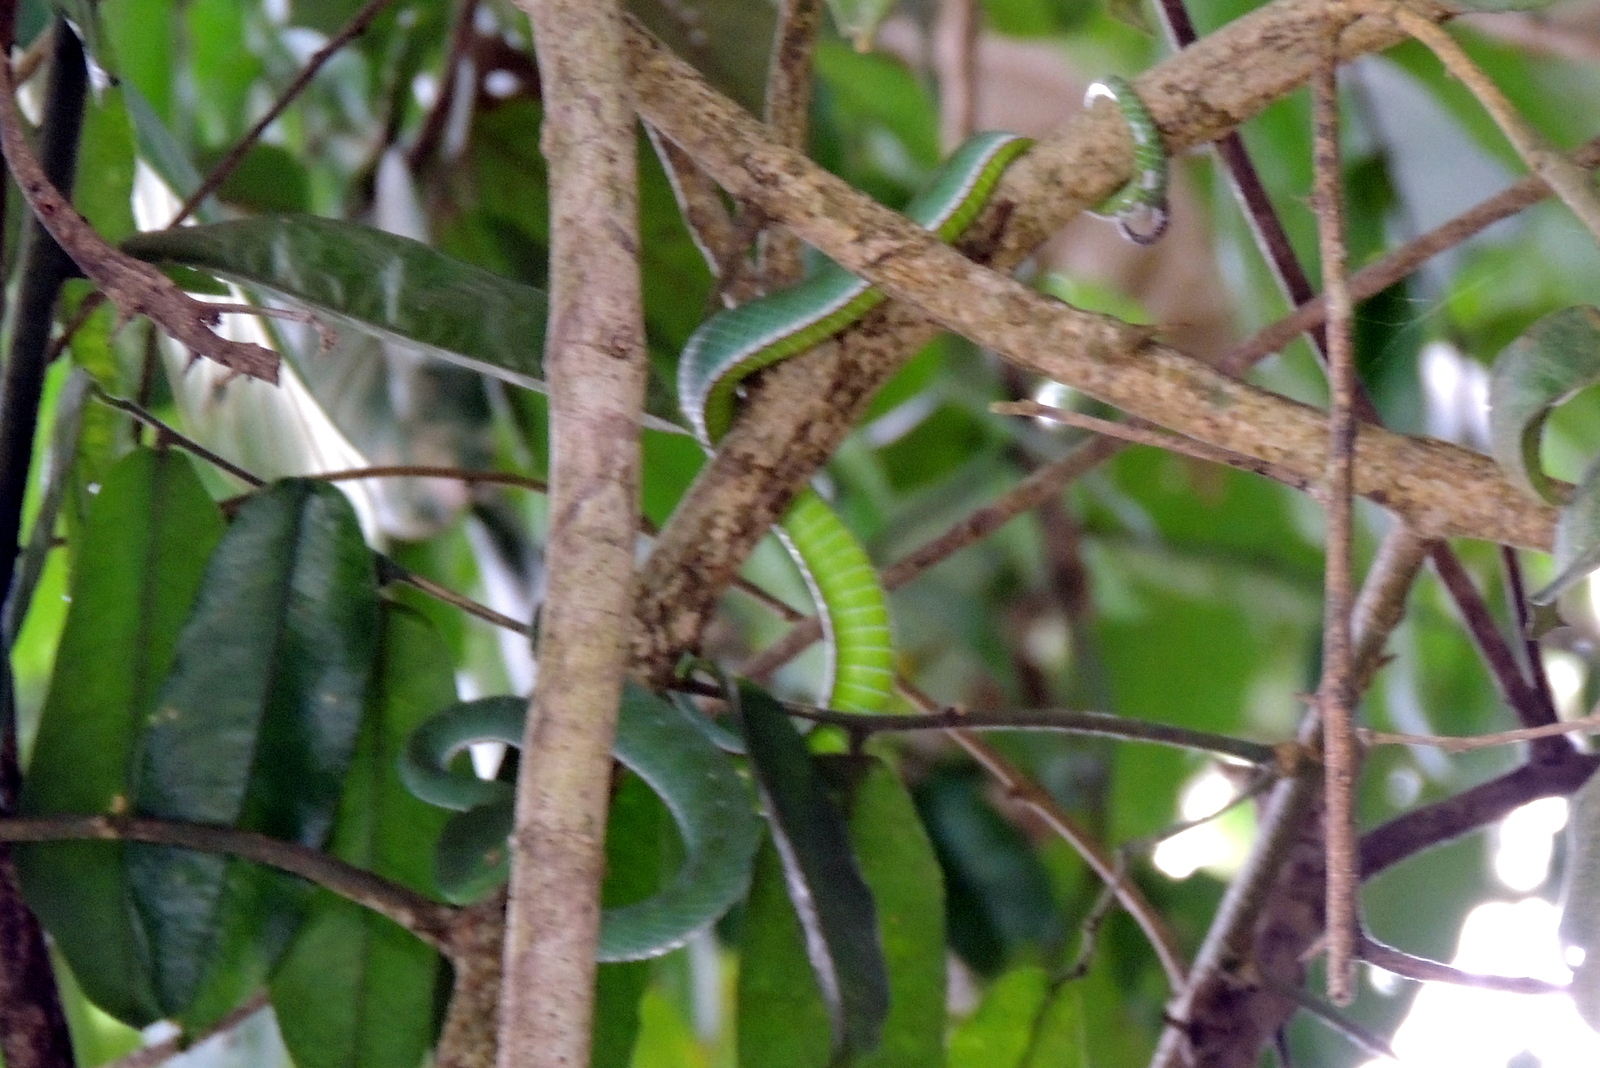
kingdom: Animalia
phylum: Chordata
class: Squamata
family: Viperidae
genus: Trimeresurus
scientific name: Trimeresurus vogeli
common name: Vogel's pit viper
